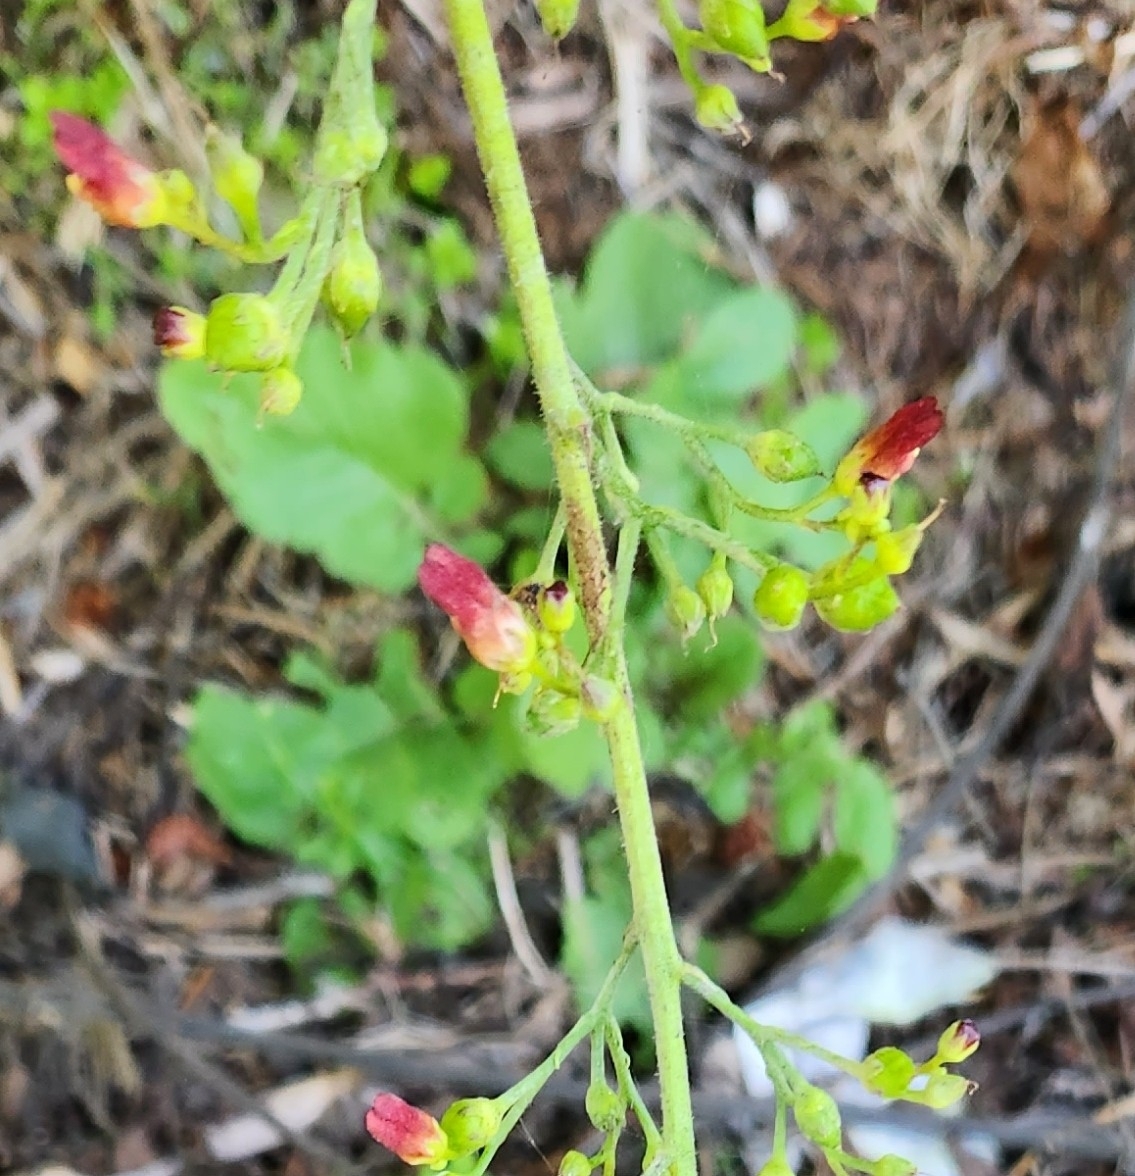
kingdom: Plantae
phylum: Tracheophyta
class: Magnoliopsida
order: Lamiales
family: Scrophulariaceae
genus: Scrophularia
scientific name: Scrophularia californica
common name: California figwort
